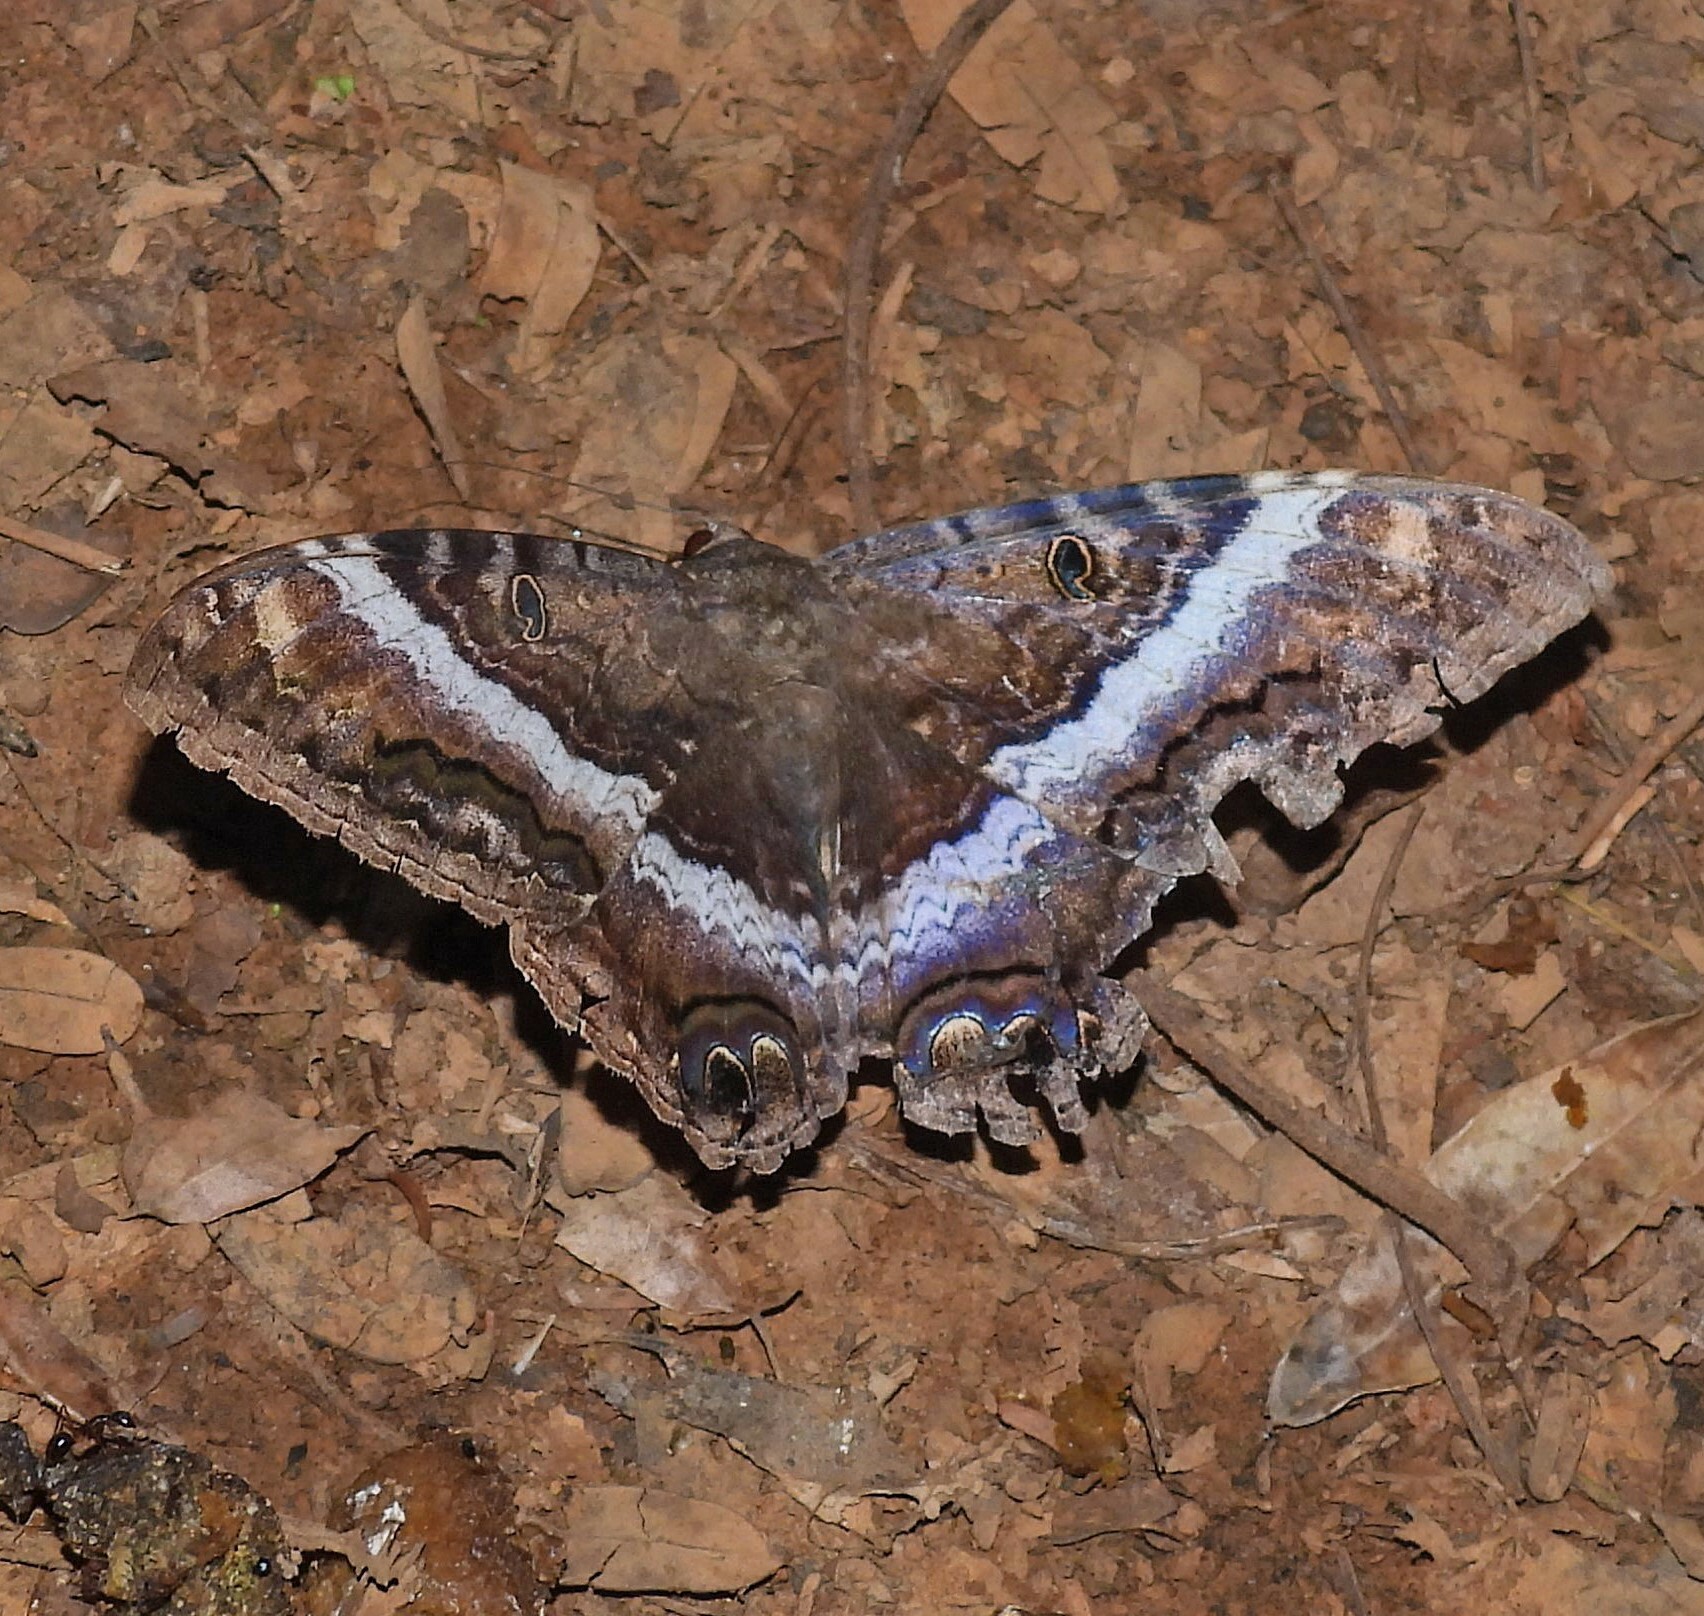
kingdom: Animalia
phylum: Arthropoda
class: Insecta
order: Lepidoptera
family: Erebidae
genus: Ascalapha
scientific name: Ascalapha odorata
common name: Black witch
